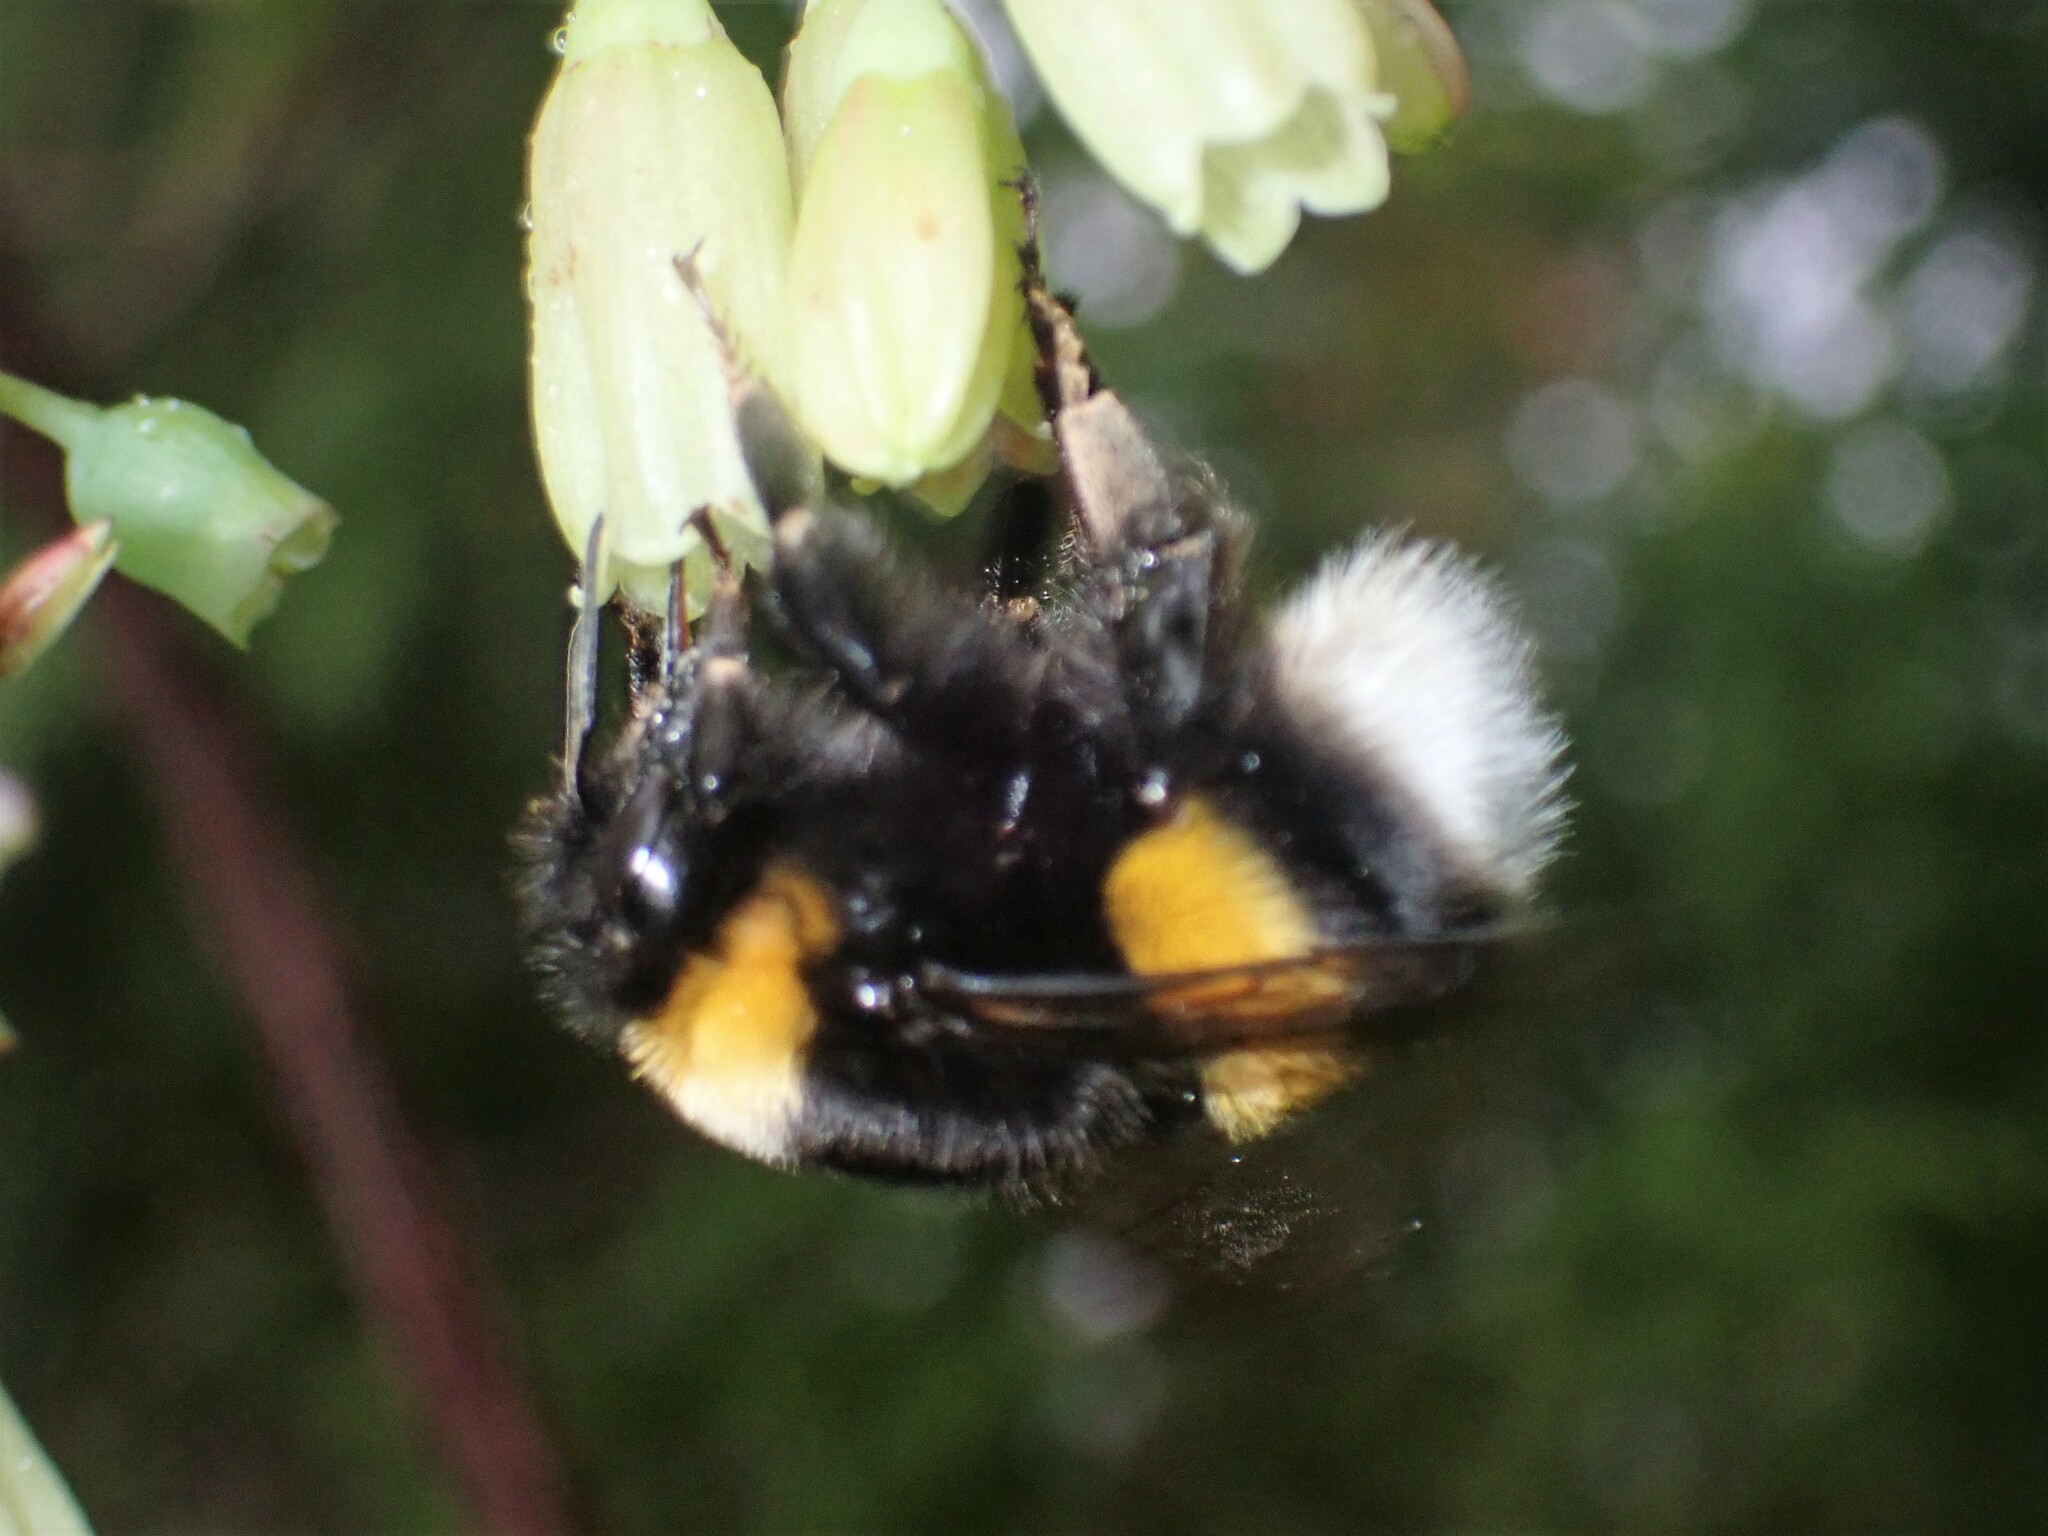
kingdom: Animalia
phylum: Arthropoda
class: Insecta
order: Hymenoptera
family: Apidae
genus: Bombus
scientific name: Bombus terrestris
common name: Buff-tailed bumblebee
